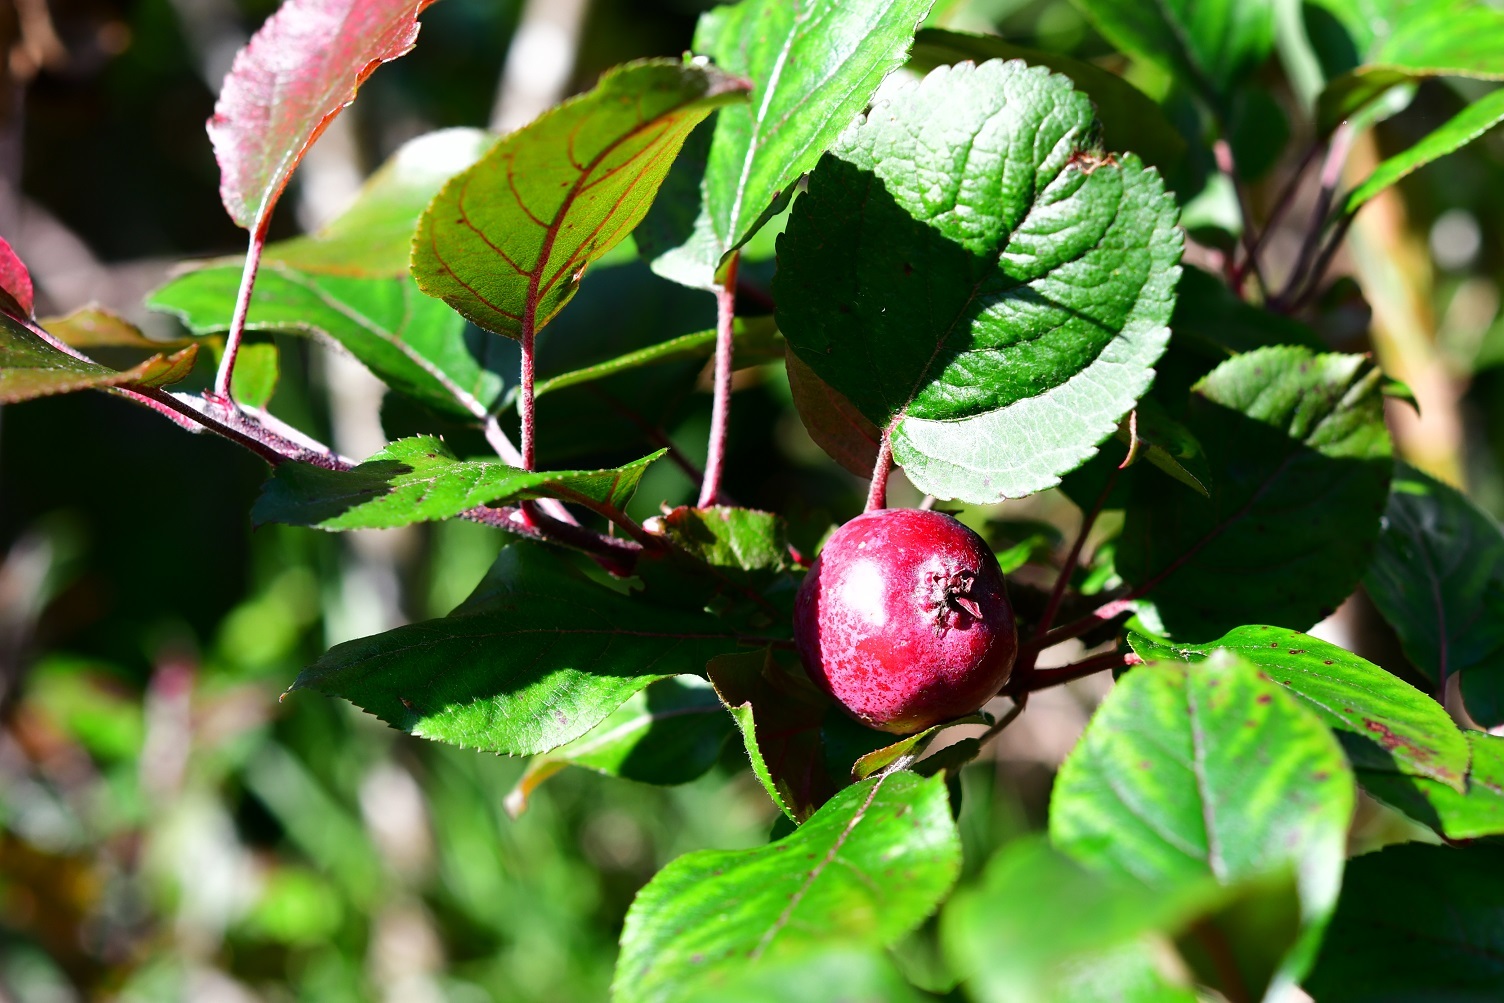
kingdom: Plantae
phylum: Tracheophyta
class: Magnoliopsida
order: Rosales
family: Rosaceae
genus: Malus
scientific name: Malus domestica
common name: Apple
